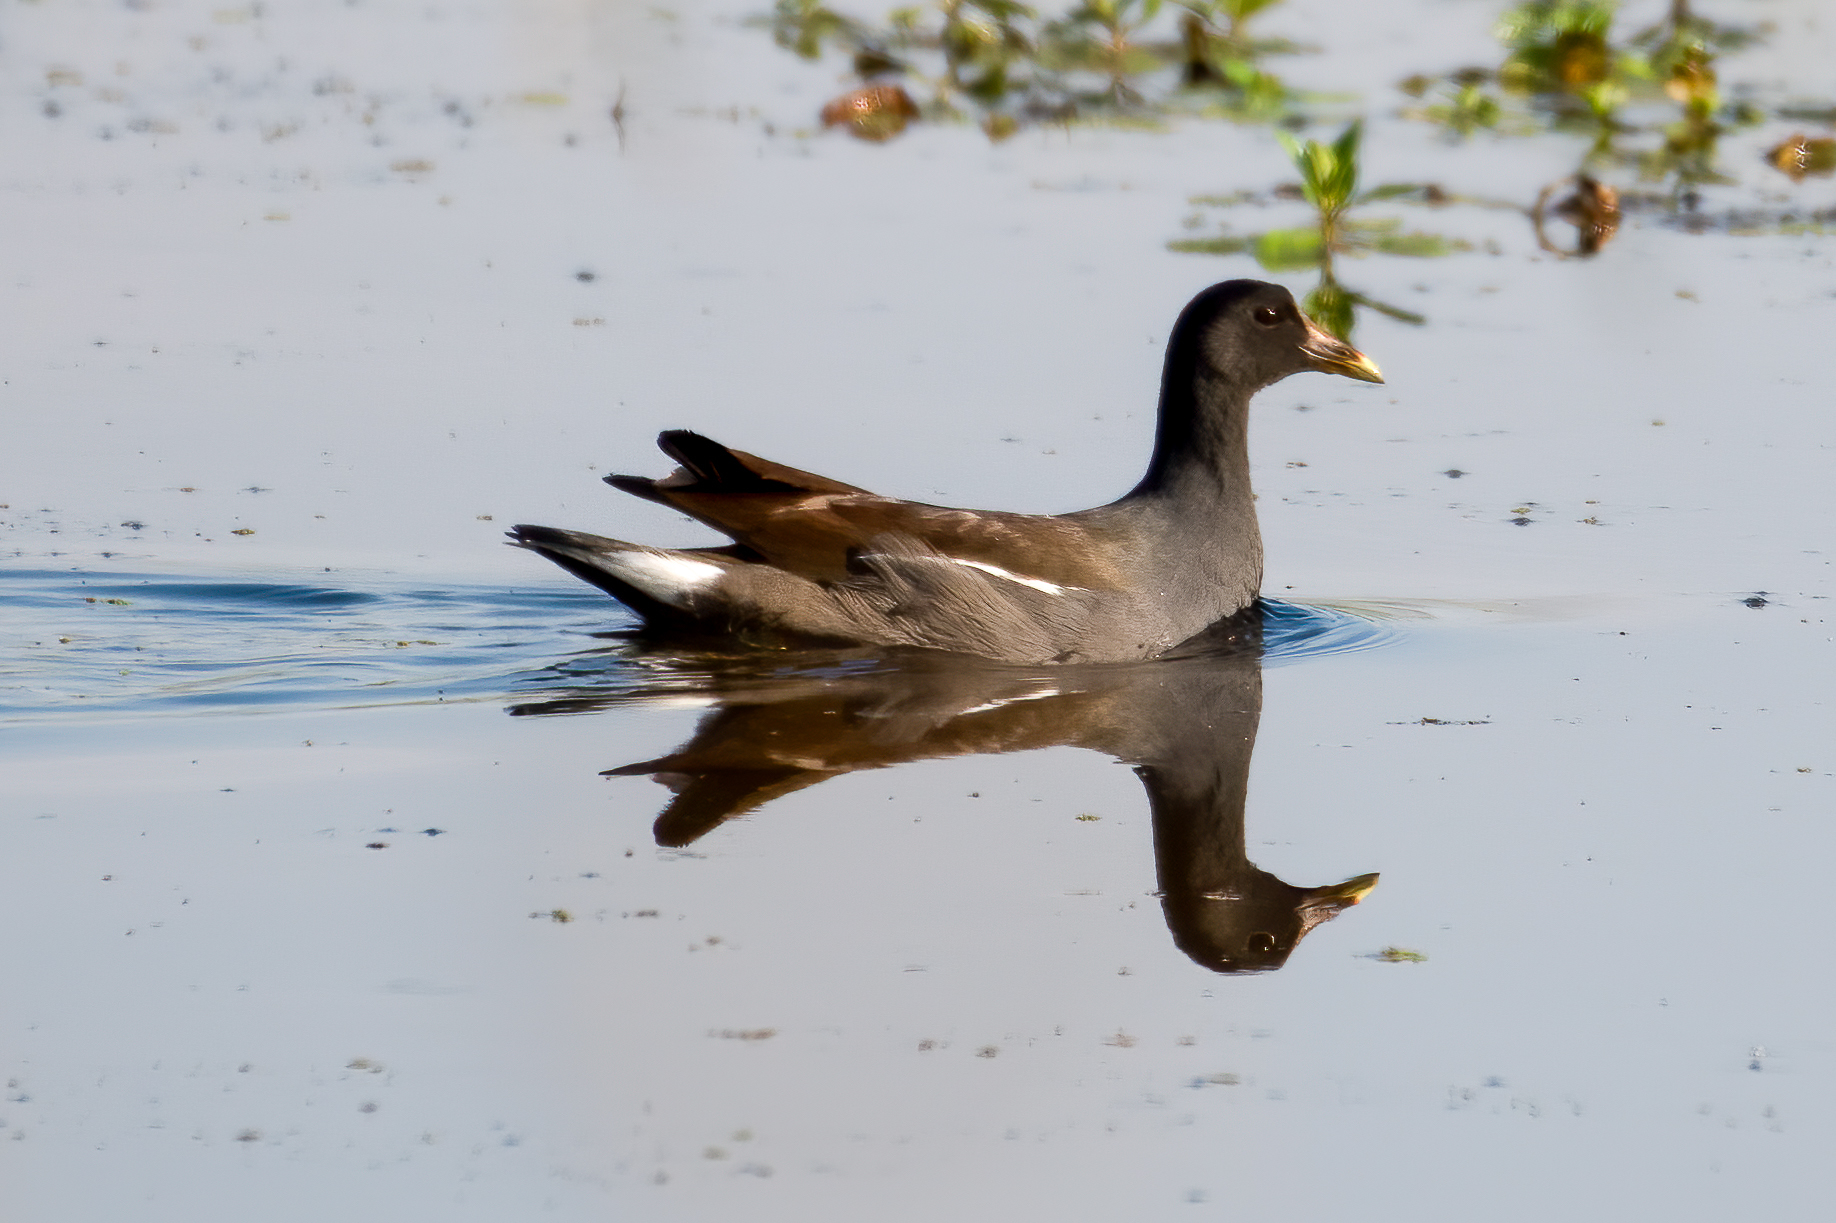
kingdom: Animalia
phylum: Chordata
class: Aves
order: Gruiformes
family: Rallidae
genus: Gallinula
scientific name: Gallinula chloropus
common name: Common moorhen
